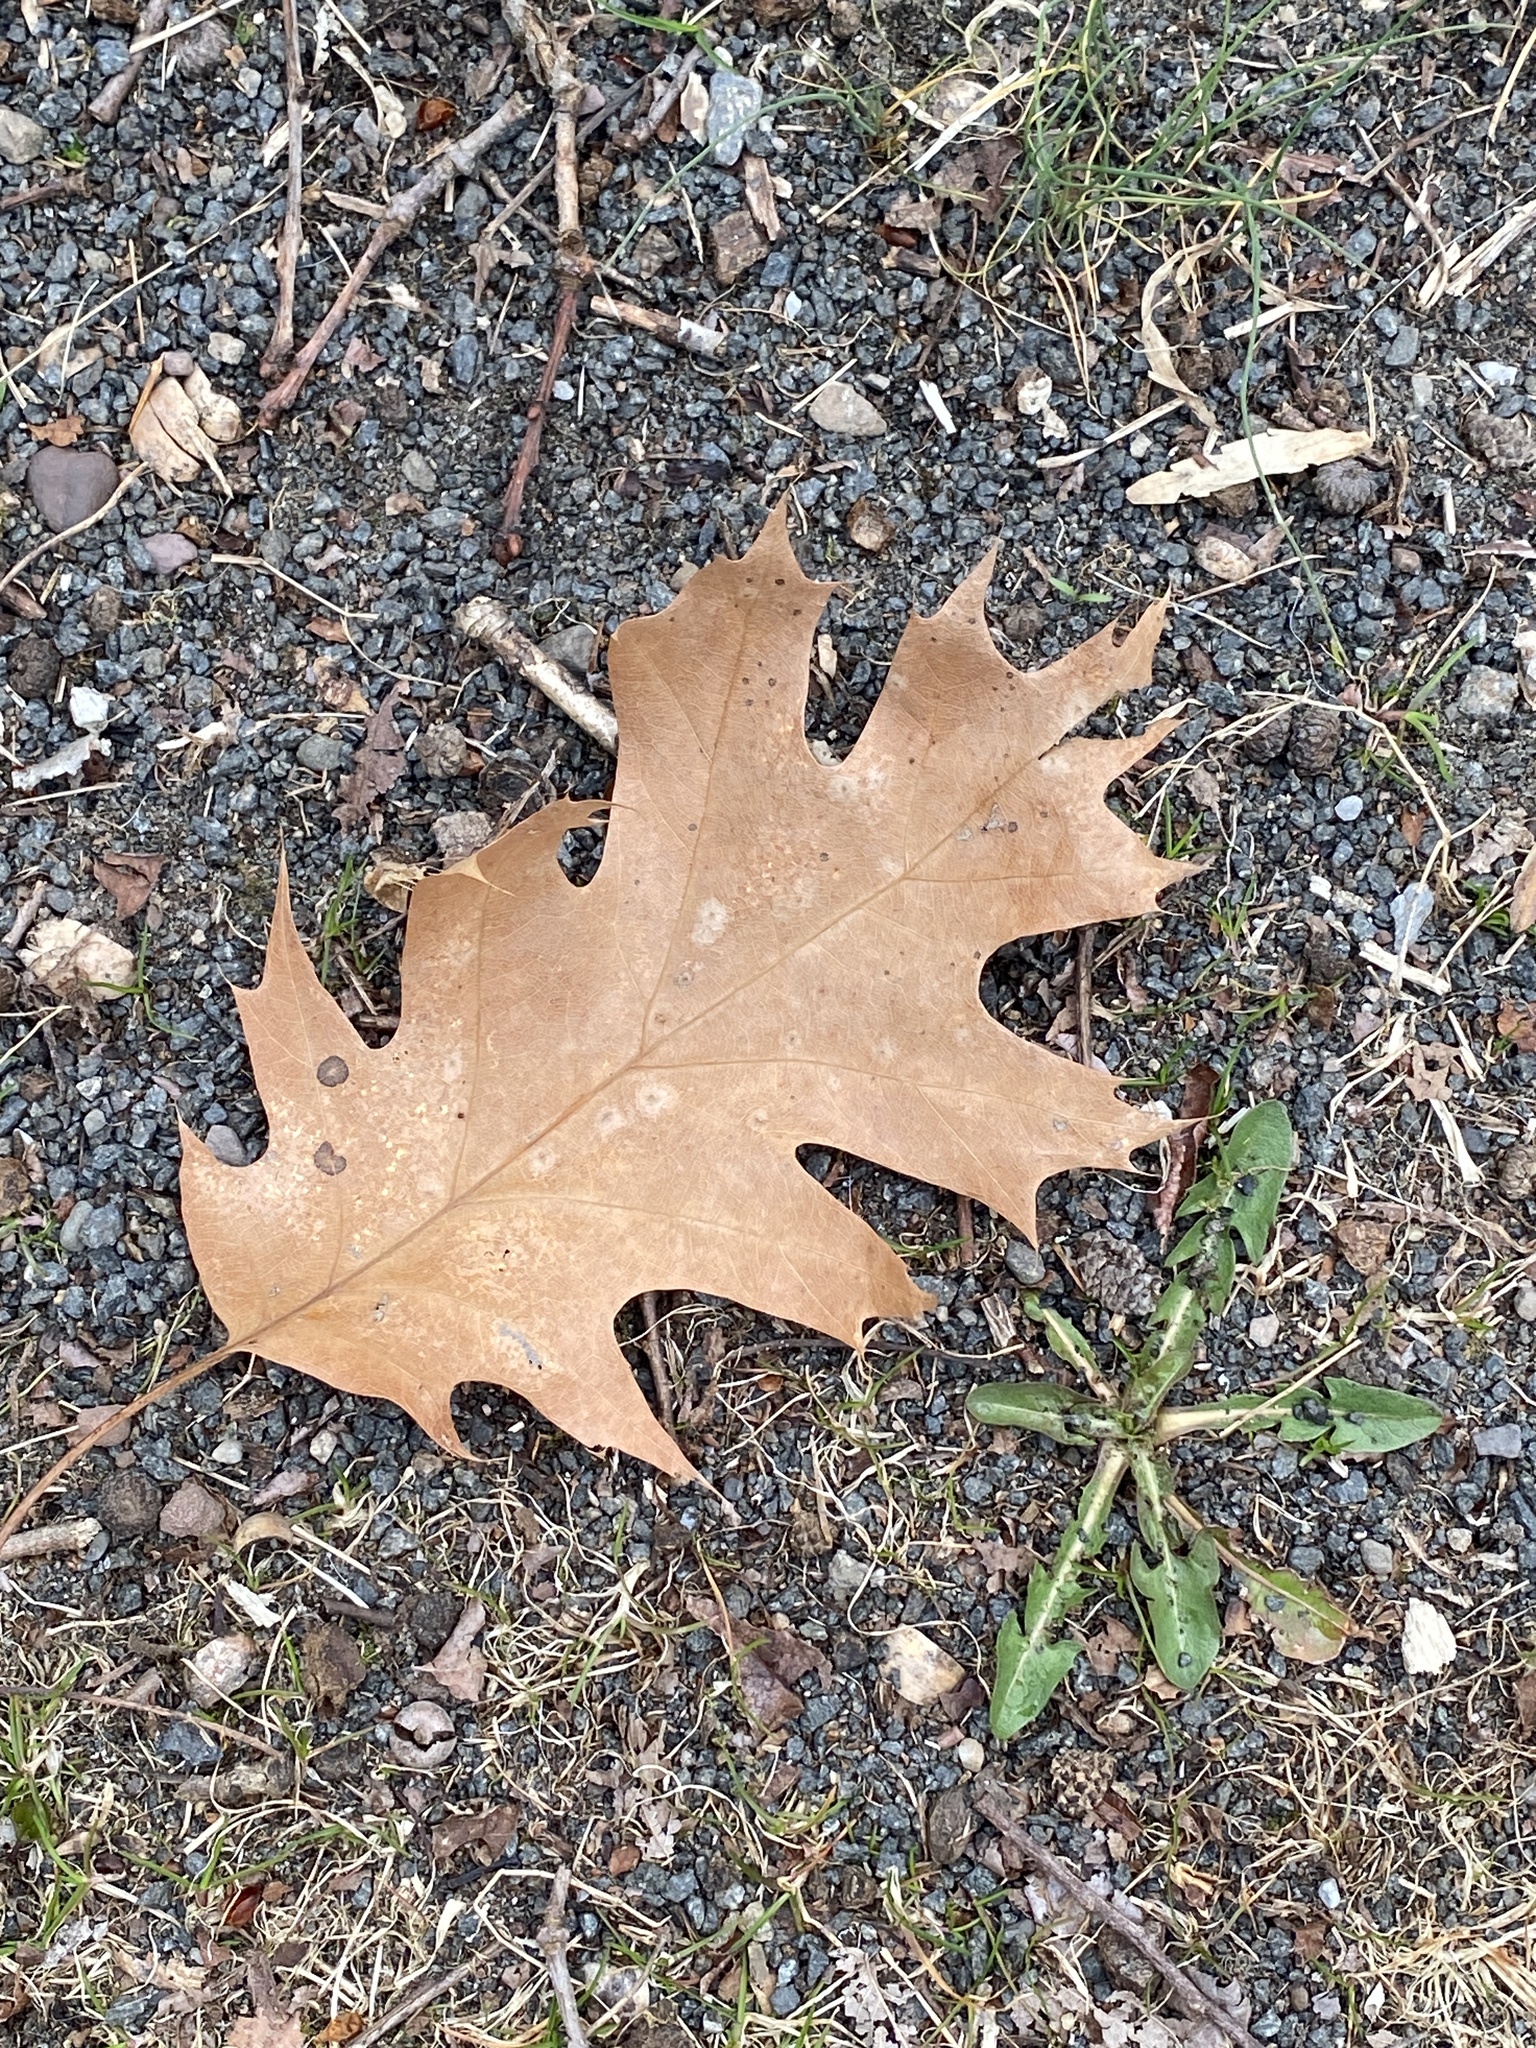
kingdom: Plantae
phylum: Tracheophyta
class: Magnoliopsida
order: Fagales
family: Fagaceae
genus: Quercus
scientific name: Quercus rubra
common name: Red oak
